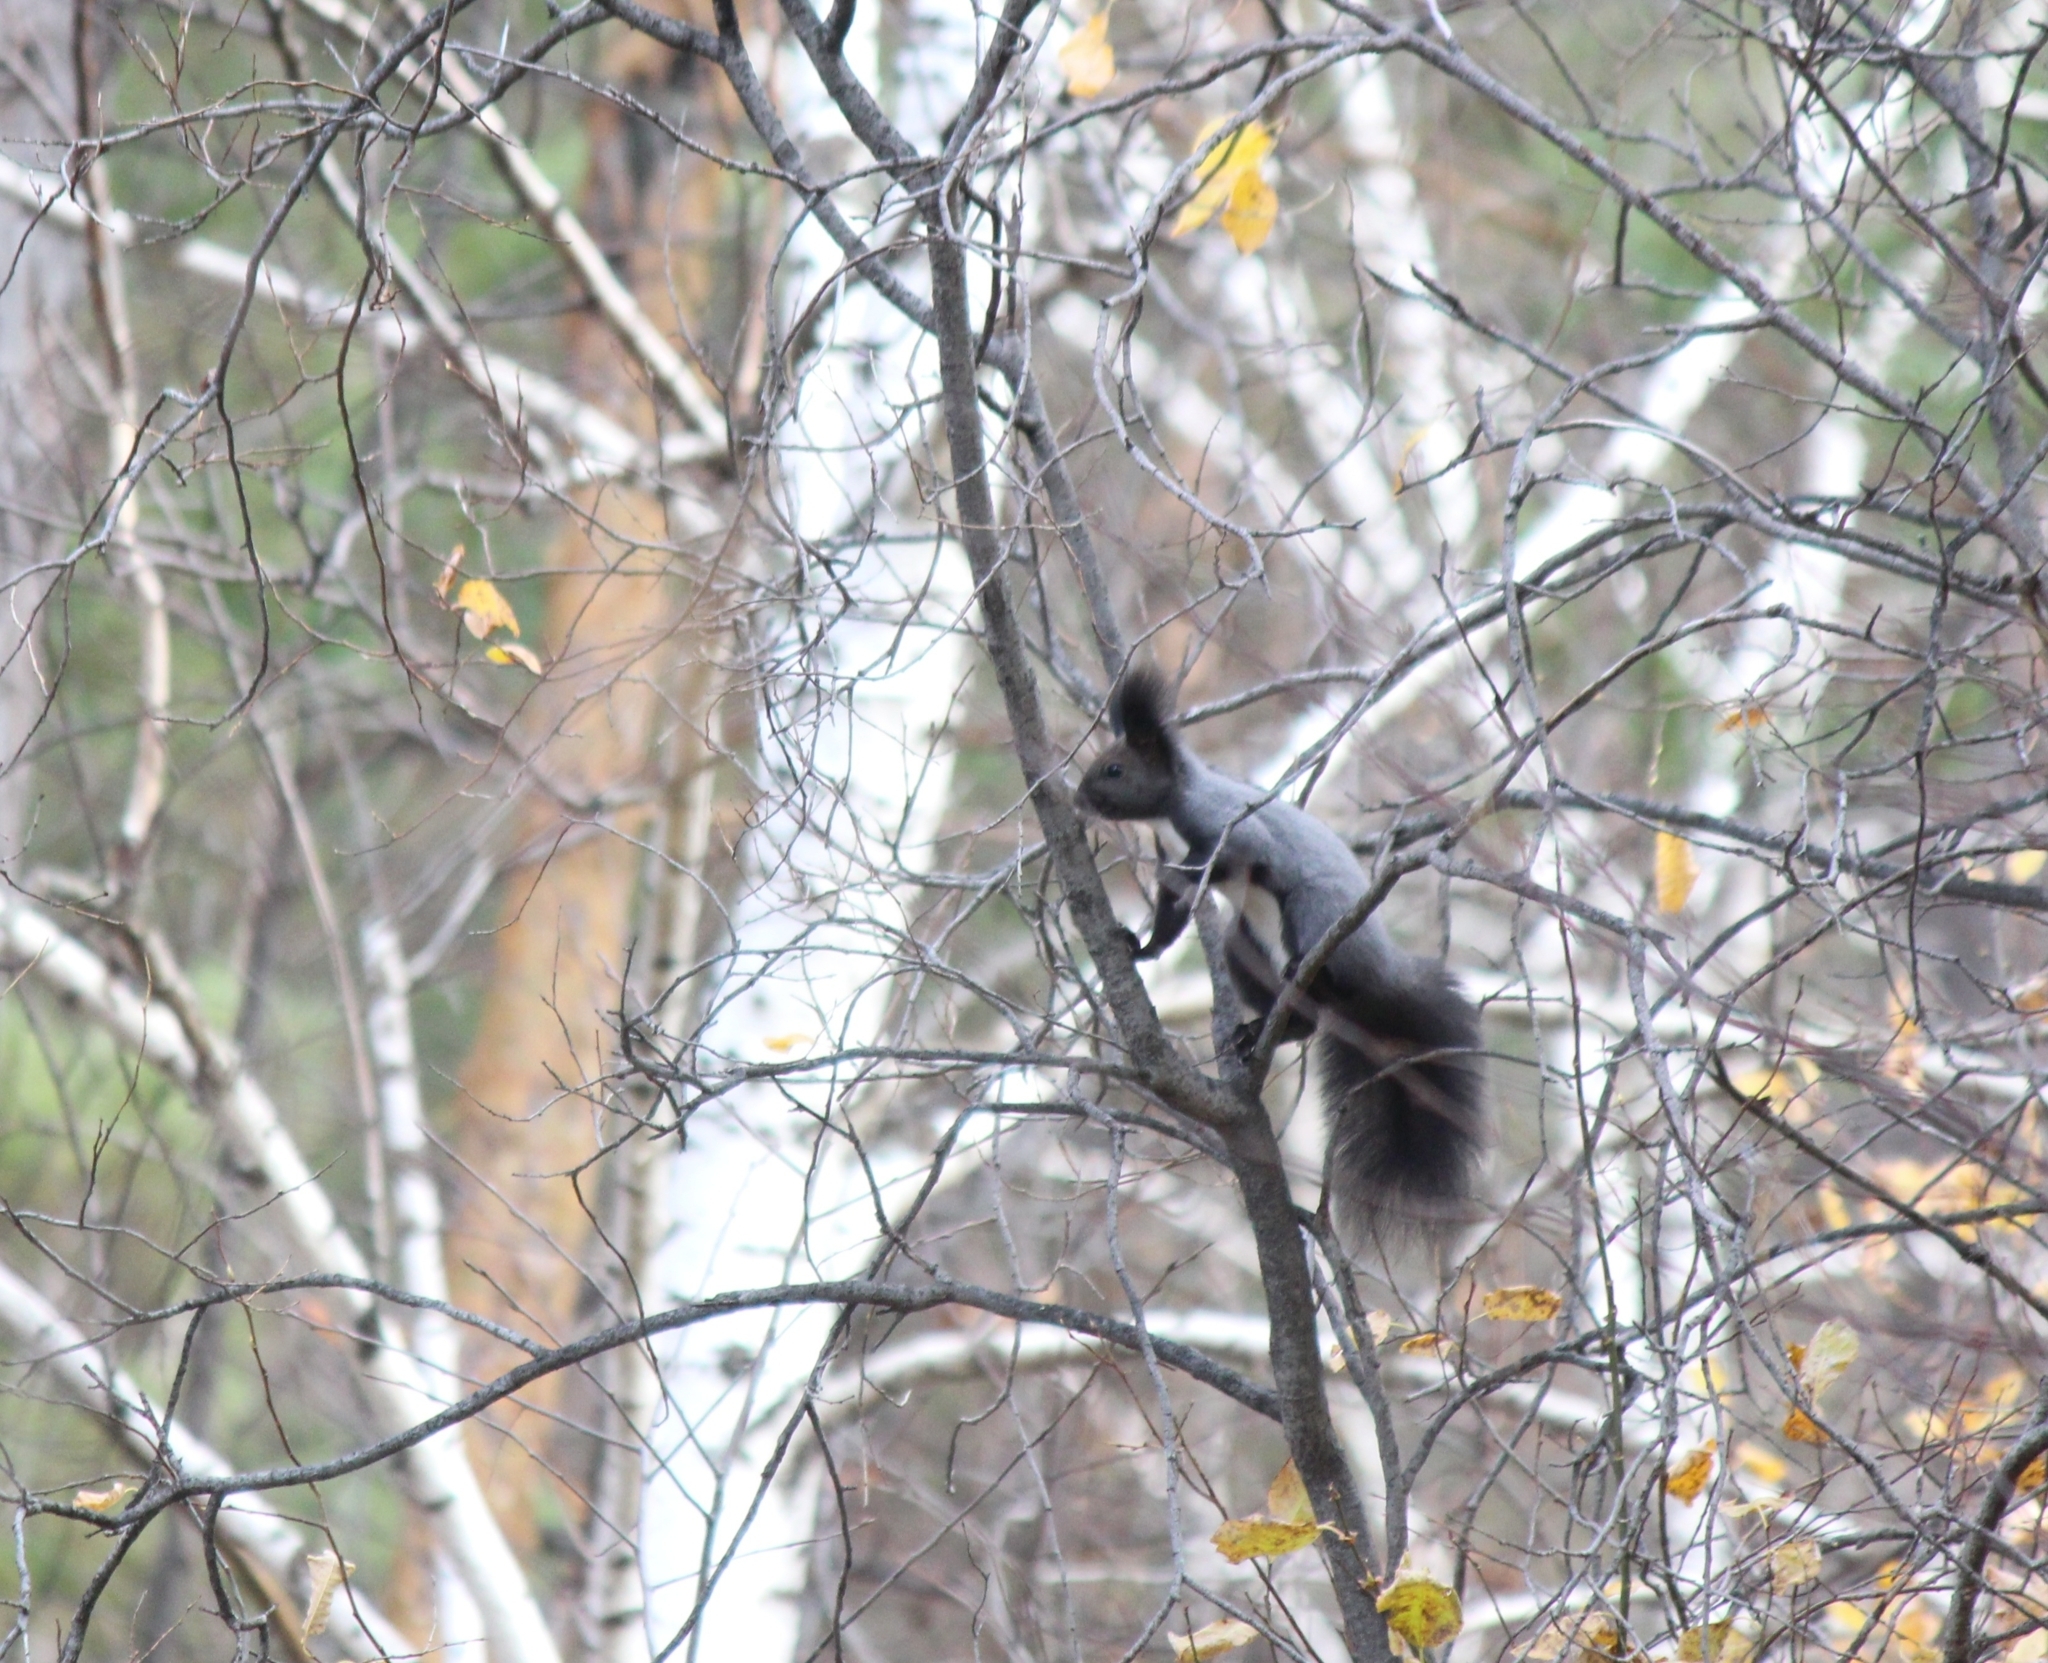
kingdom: Animalia
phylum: Chordata
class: Mammalia
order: Rodentia
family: Sciuridae
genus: Sciurus
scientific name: Sciurus vulgaris
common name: Eurasian red squirrel
